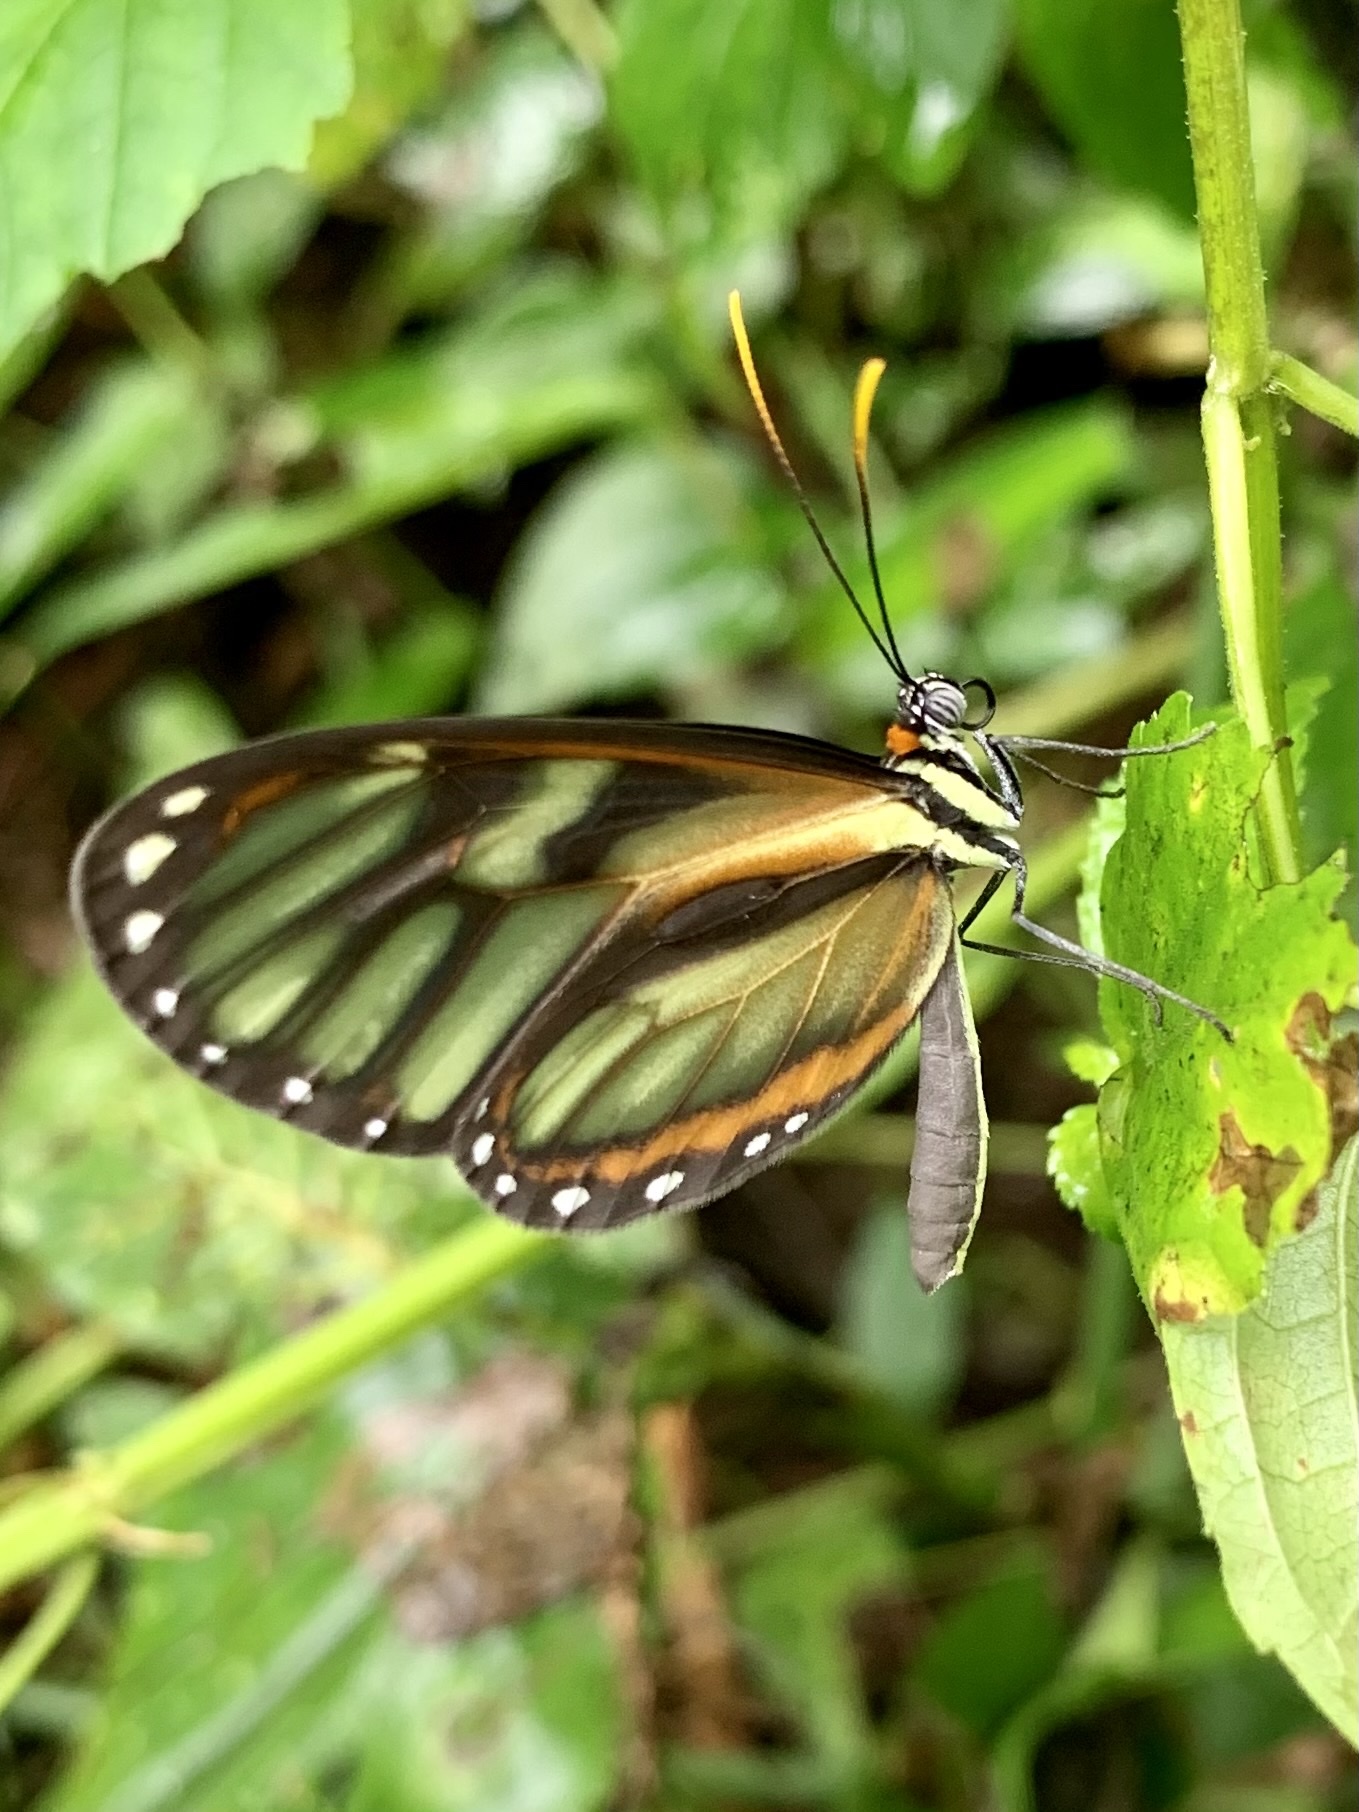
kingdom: Animalia
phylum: Arthropoda
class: Insecta
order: Lepidoptera
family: Nymphalidae
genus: Ithomia
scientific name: Ithomia
